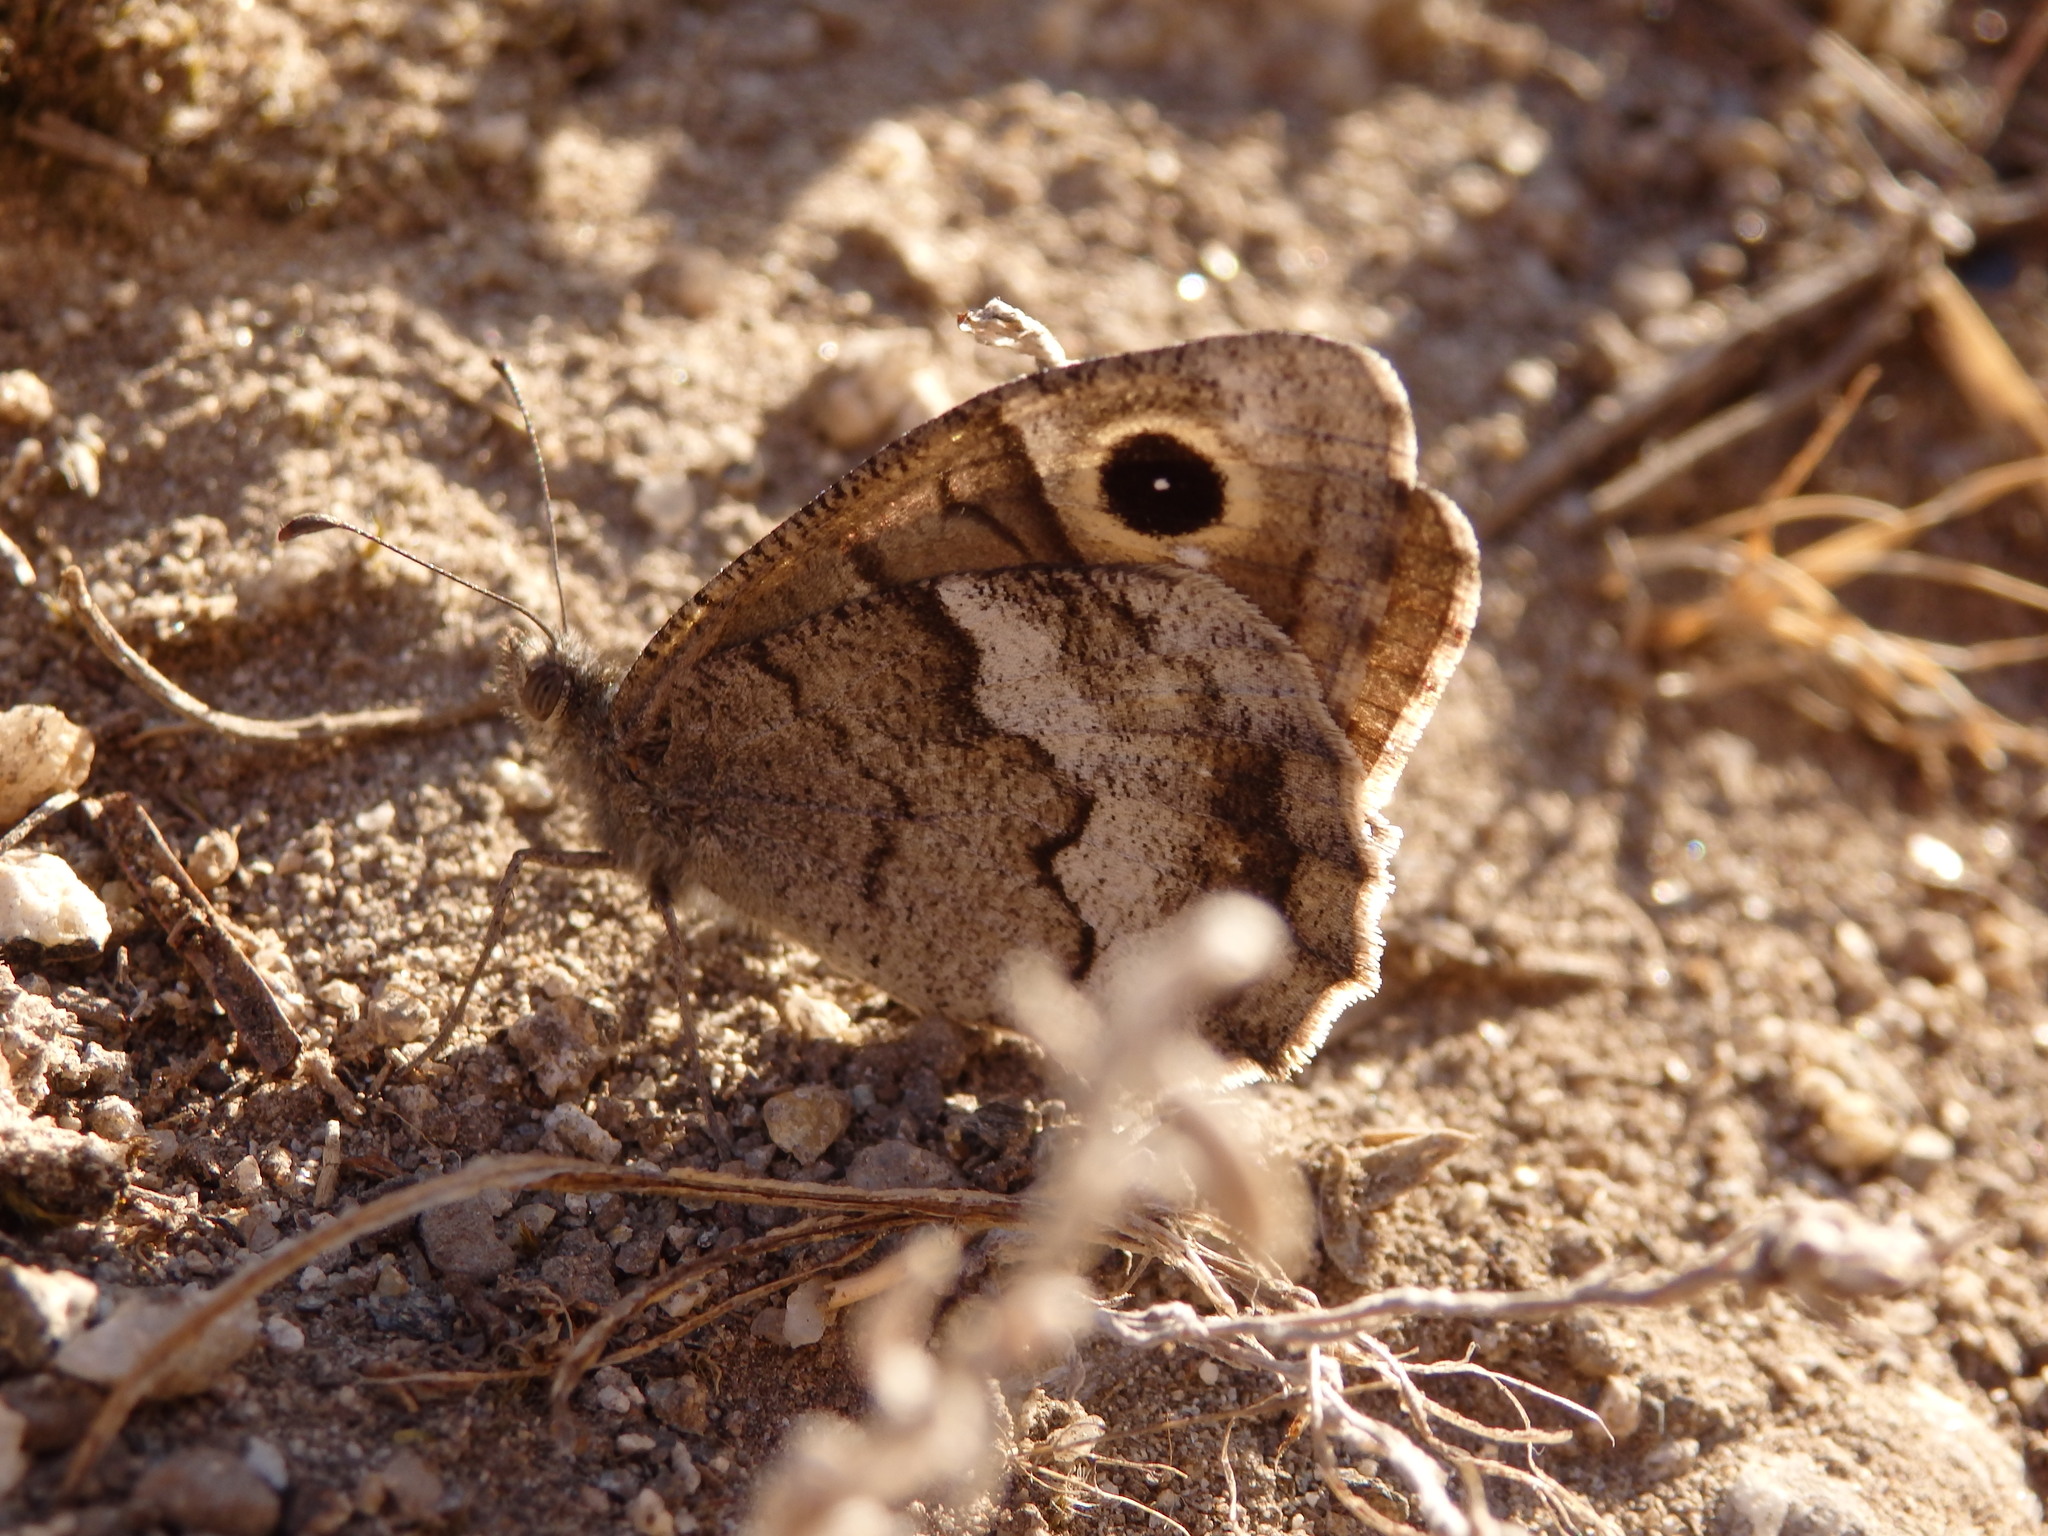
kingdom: Animalia
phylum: Arthropoda
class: Insecta
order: Lepidoptera
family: Nymphalidae
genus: Hipparchia
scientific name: Hipparchia statilinus
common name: Tree grayling
